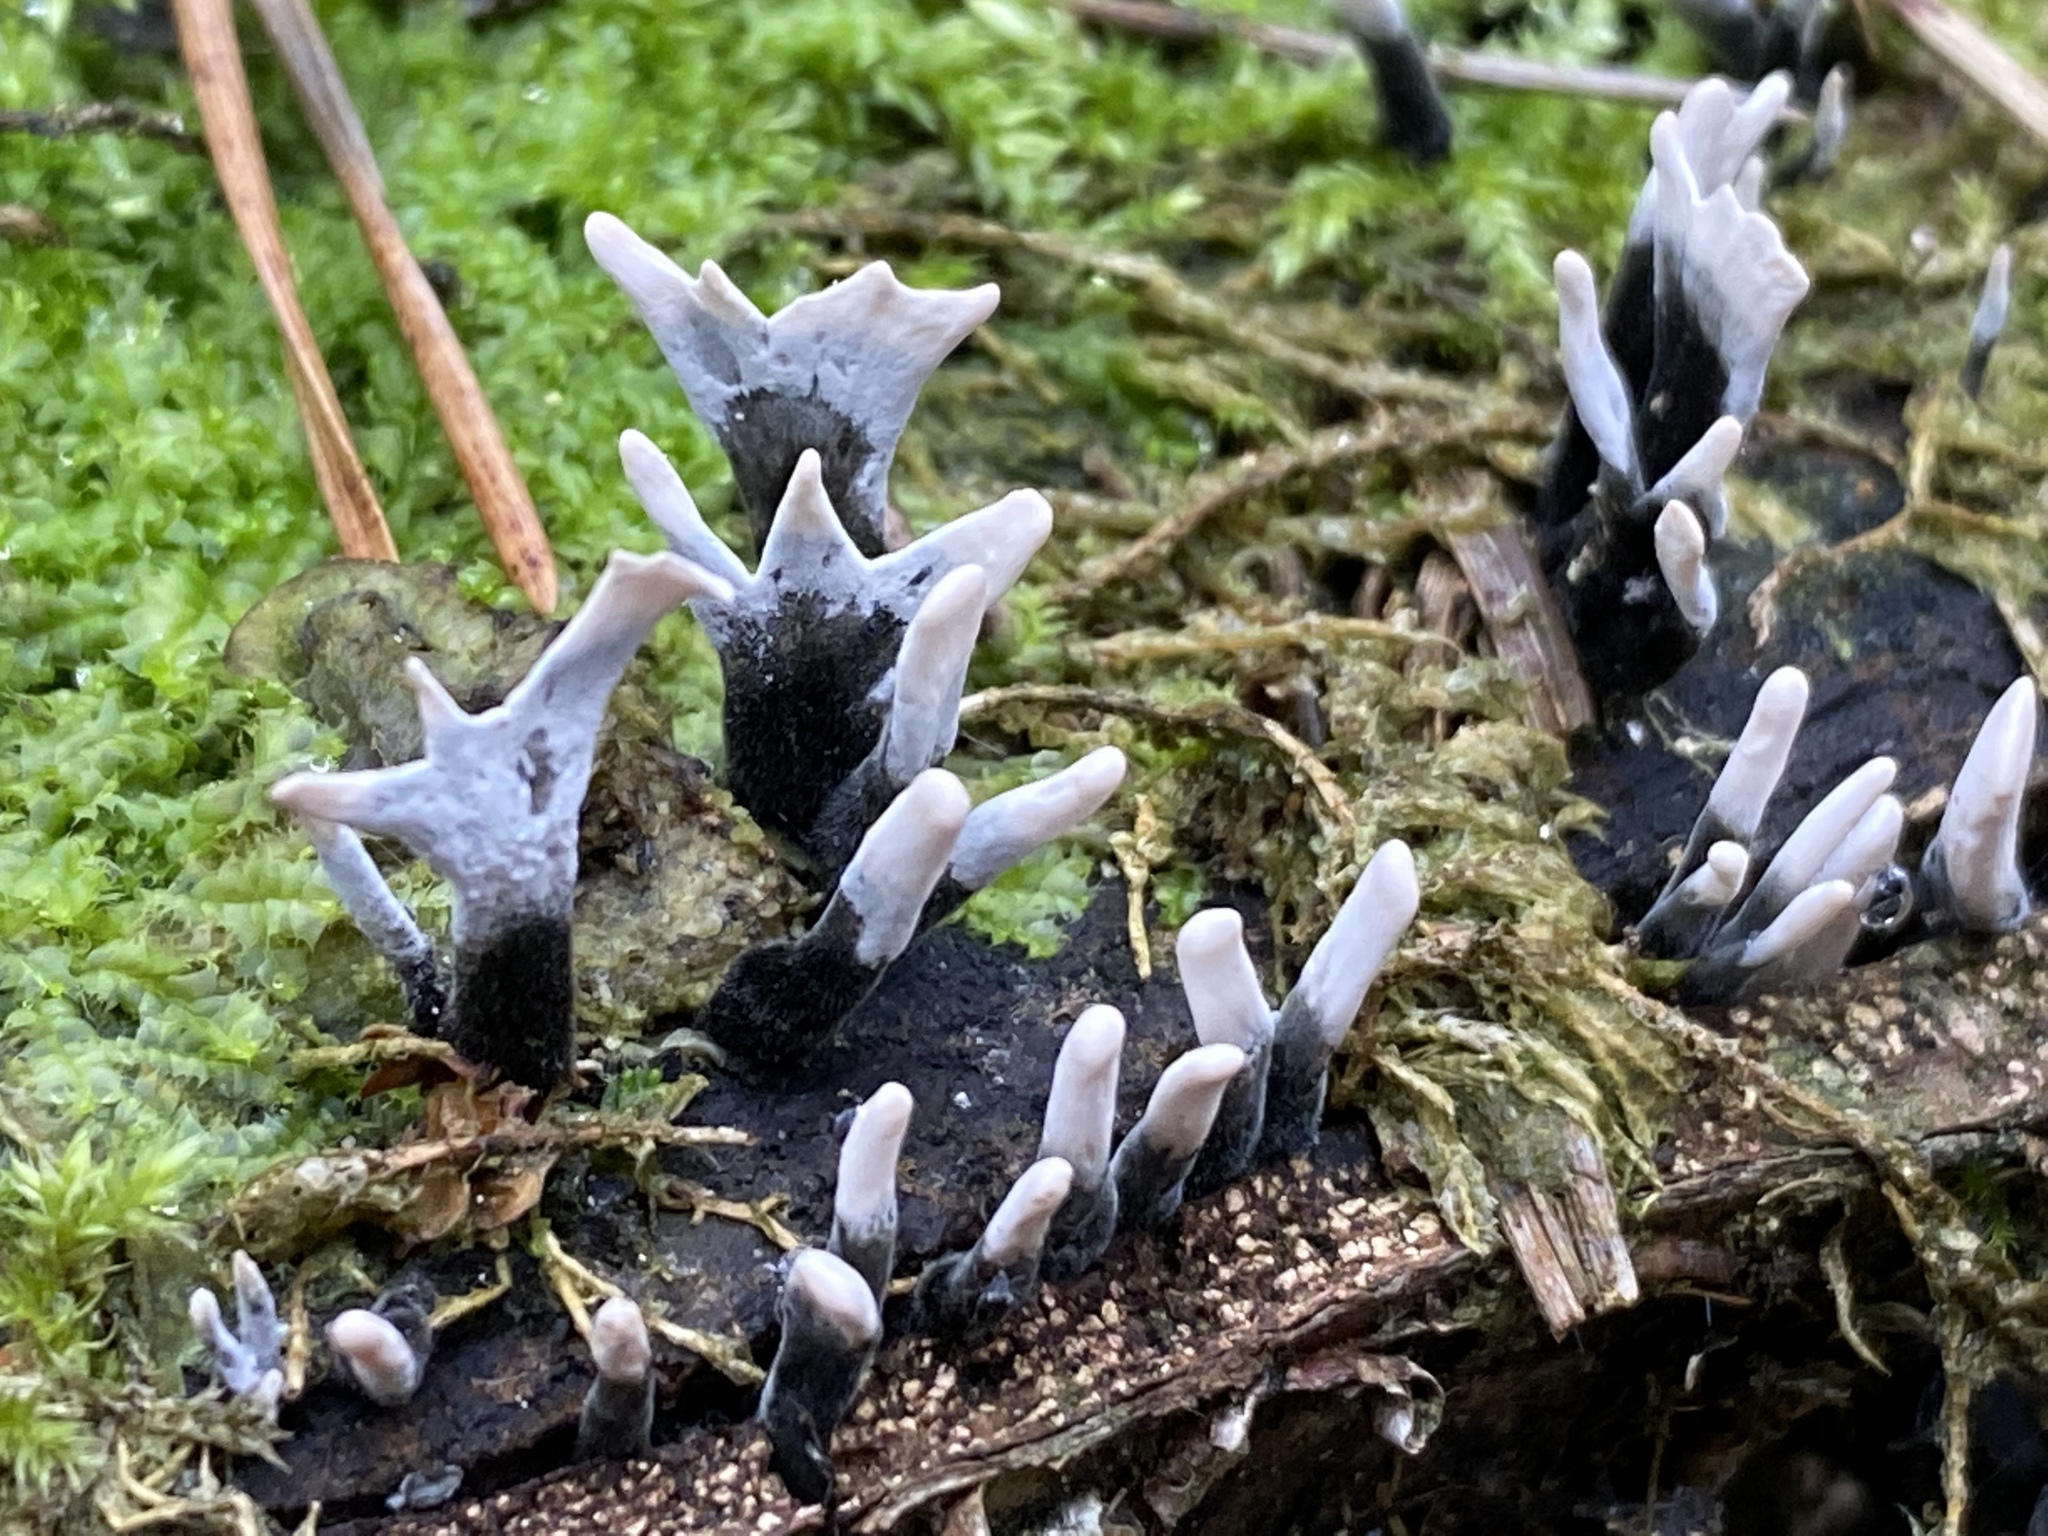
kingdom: Fungi
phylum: Ascomycota
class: Sordariomycetes
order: Xylariales
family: Xylariaceae
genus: Xylaria
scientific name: Xylaria hypoxylon
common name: Candle-snuff fungus
